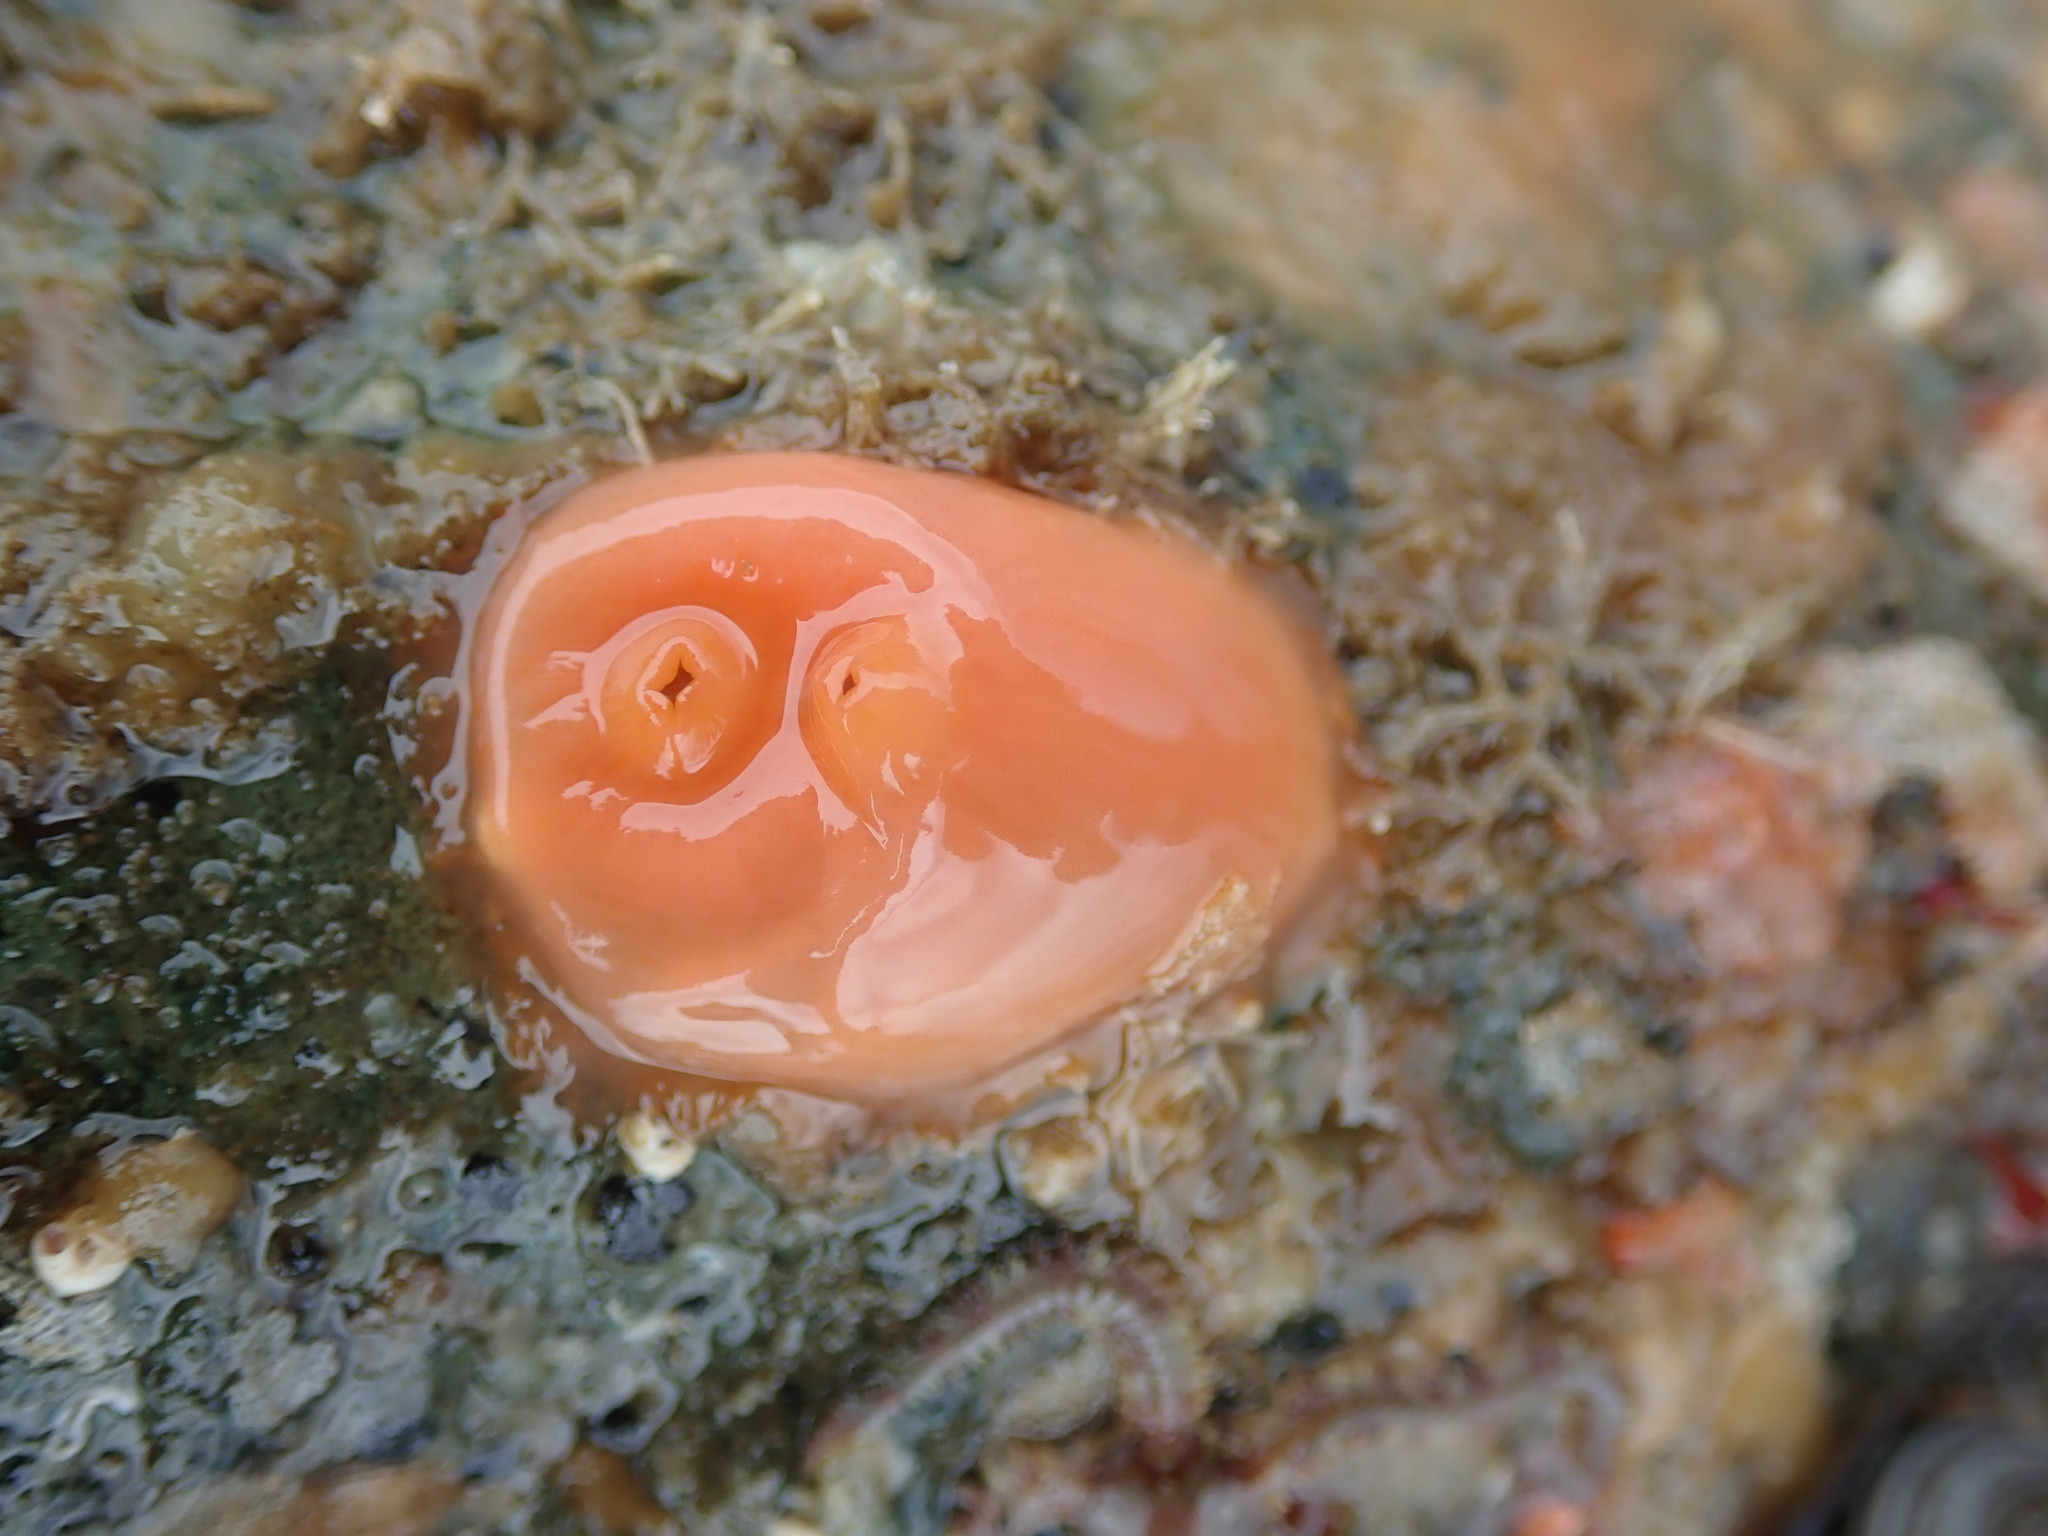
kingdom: Animalia
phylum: Chordata
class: Ascidiacea
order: Stolidobranchia
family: Styelidae
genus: Cnemidocarpa
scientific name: Cnemidocarpa finmarkiensis
